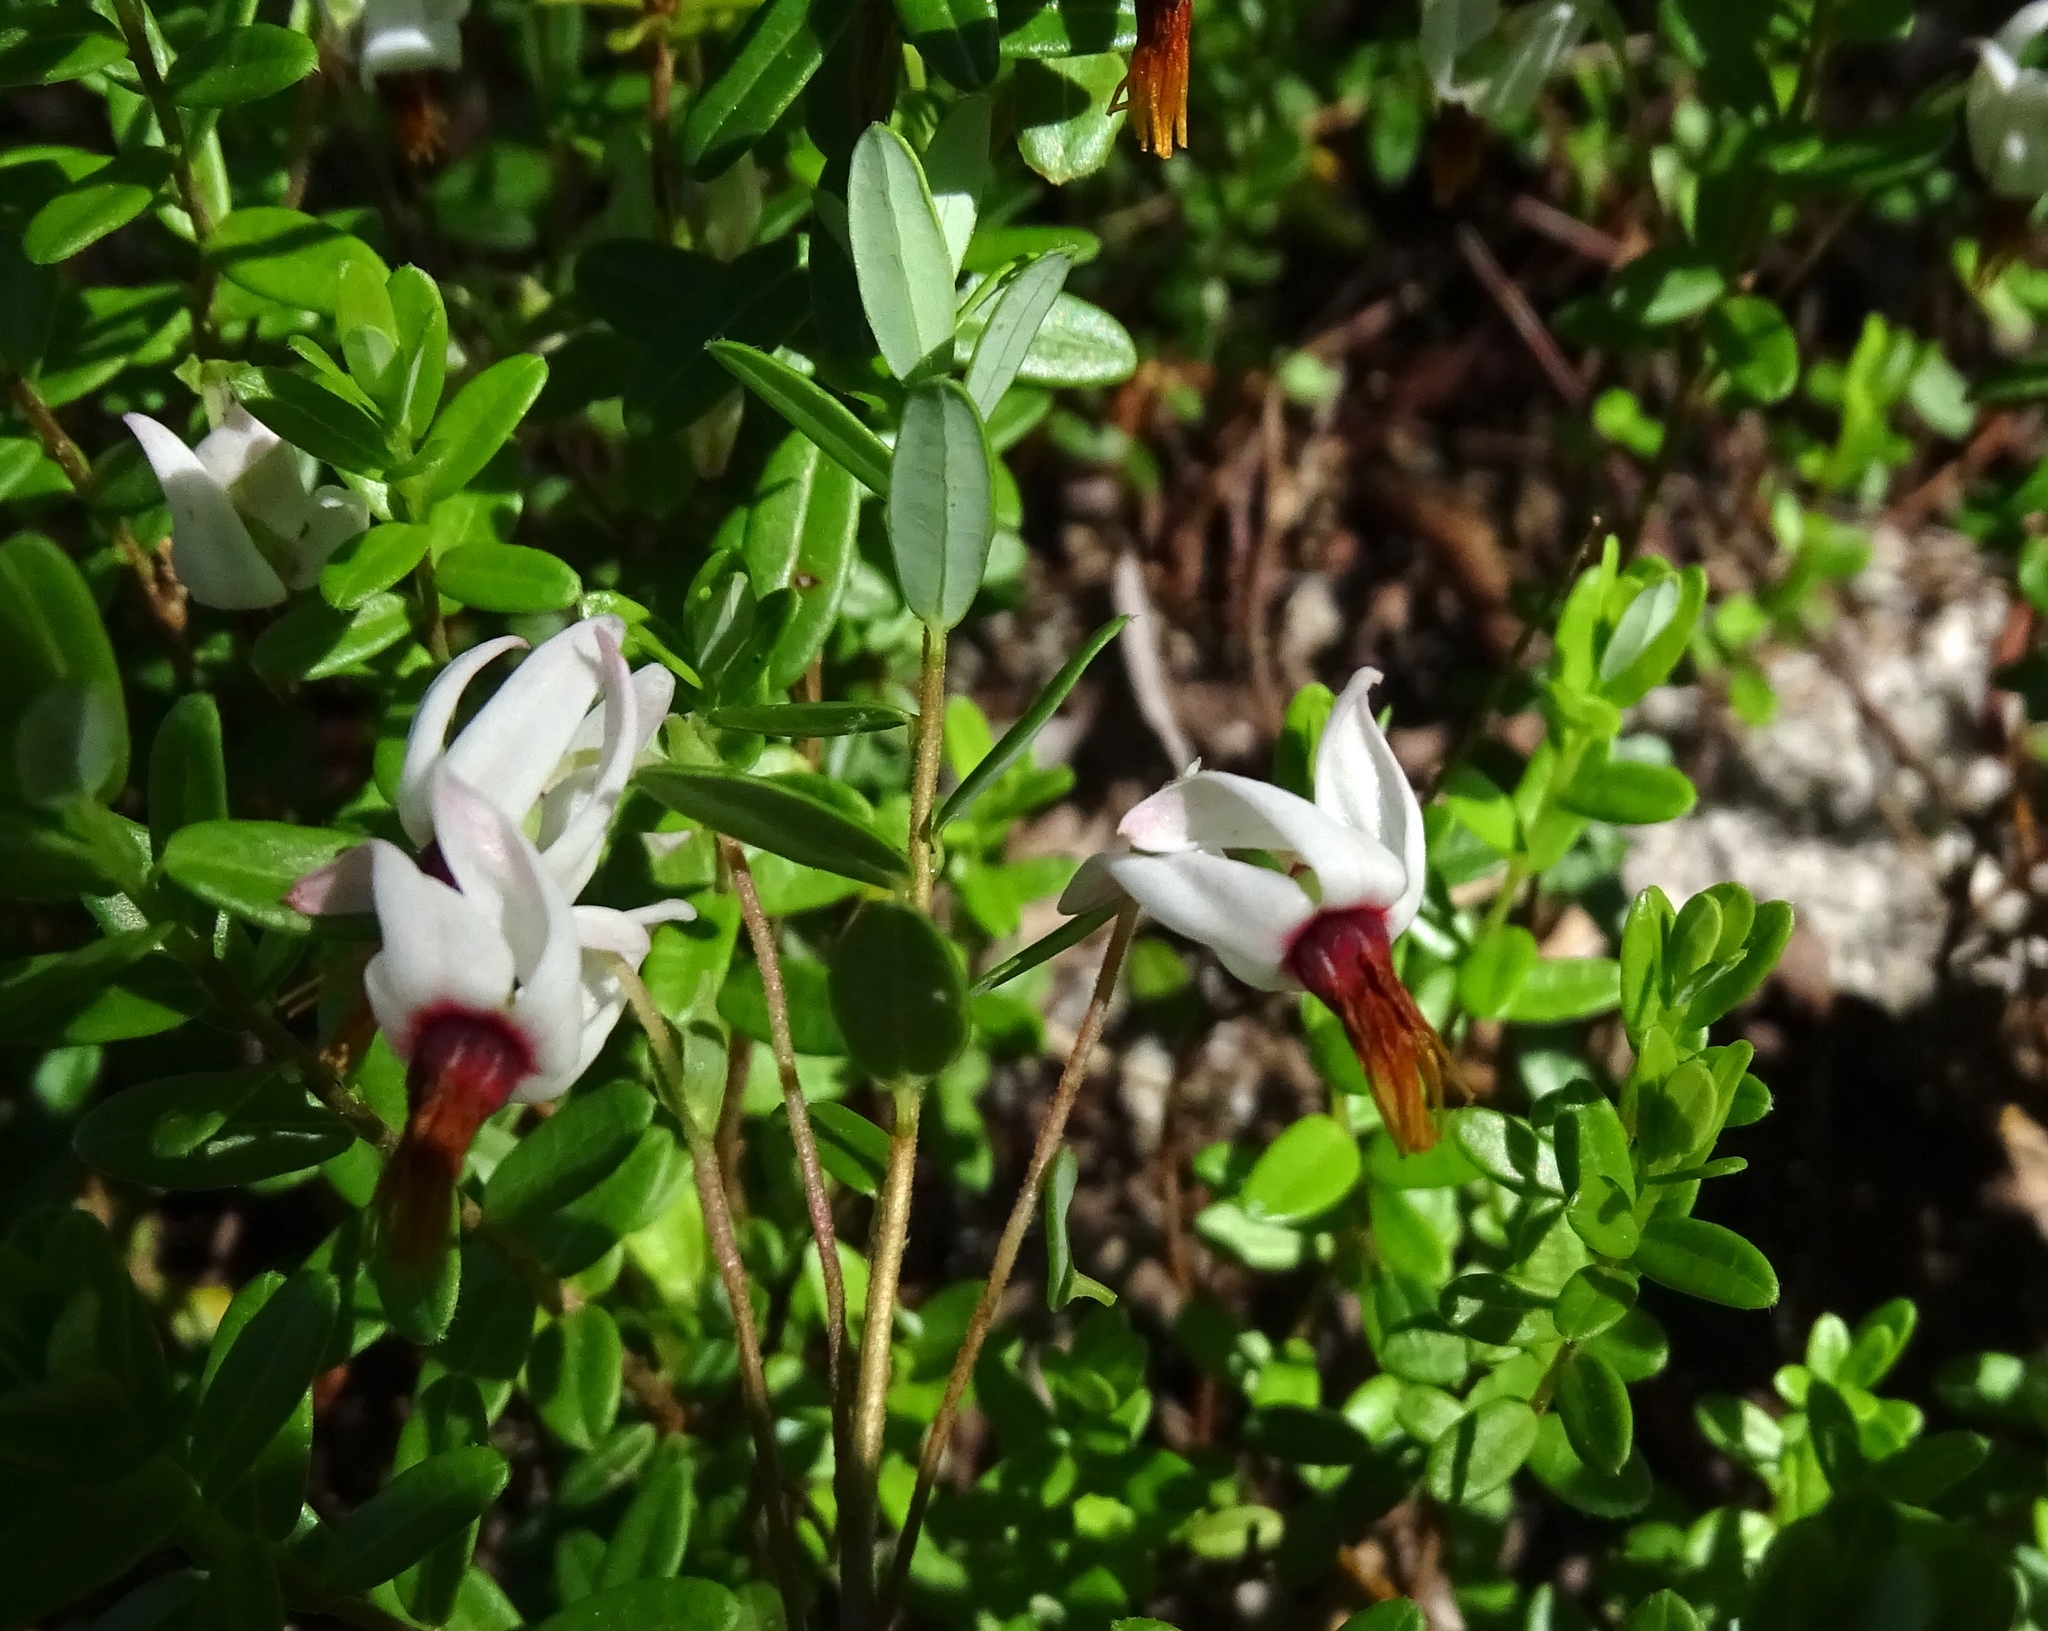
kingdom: Plantae
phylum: Tracheophyta
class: Magnoliopsida
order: Ericales
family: Ericaceae
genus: Vaccinium
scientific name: Vaccinium macrocarpon
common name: American cranberry
